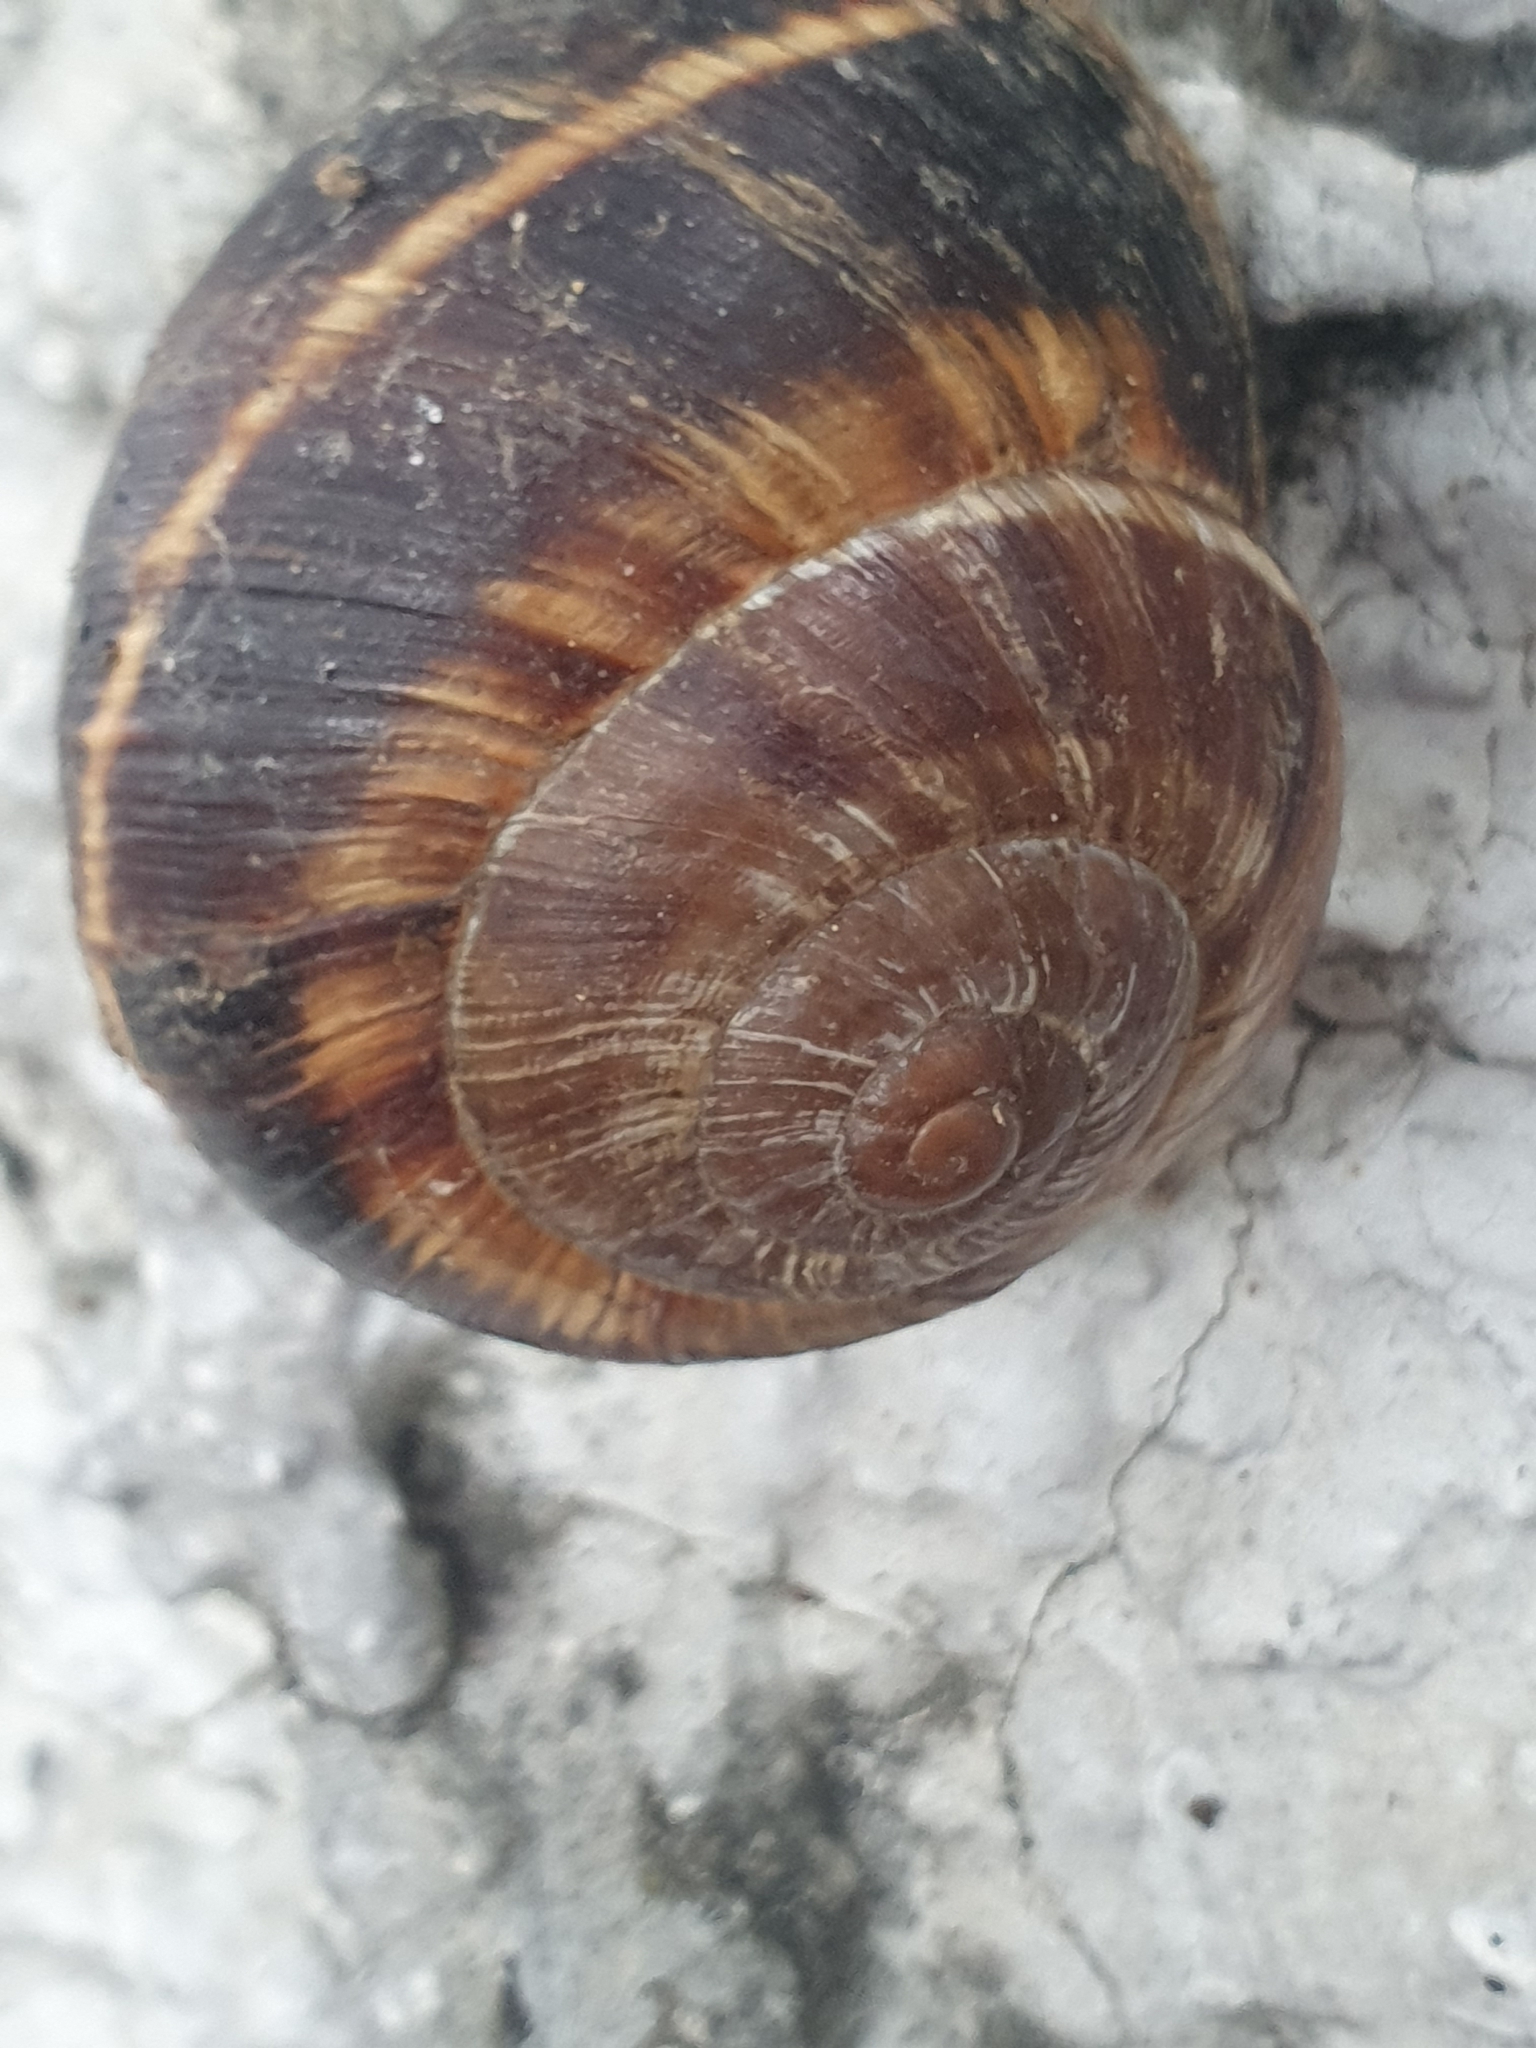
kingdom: Animalia
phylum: Mollusca
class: Gastropoda
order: Stylommatophora
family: Helicidae
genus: Helix
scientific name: Helix lucorum
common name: Turkish snail
